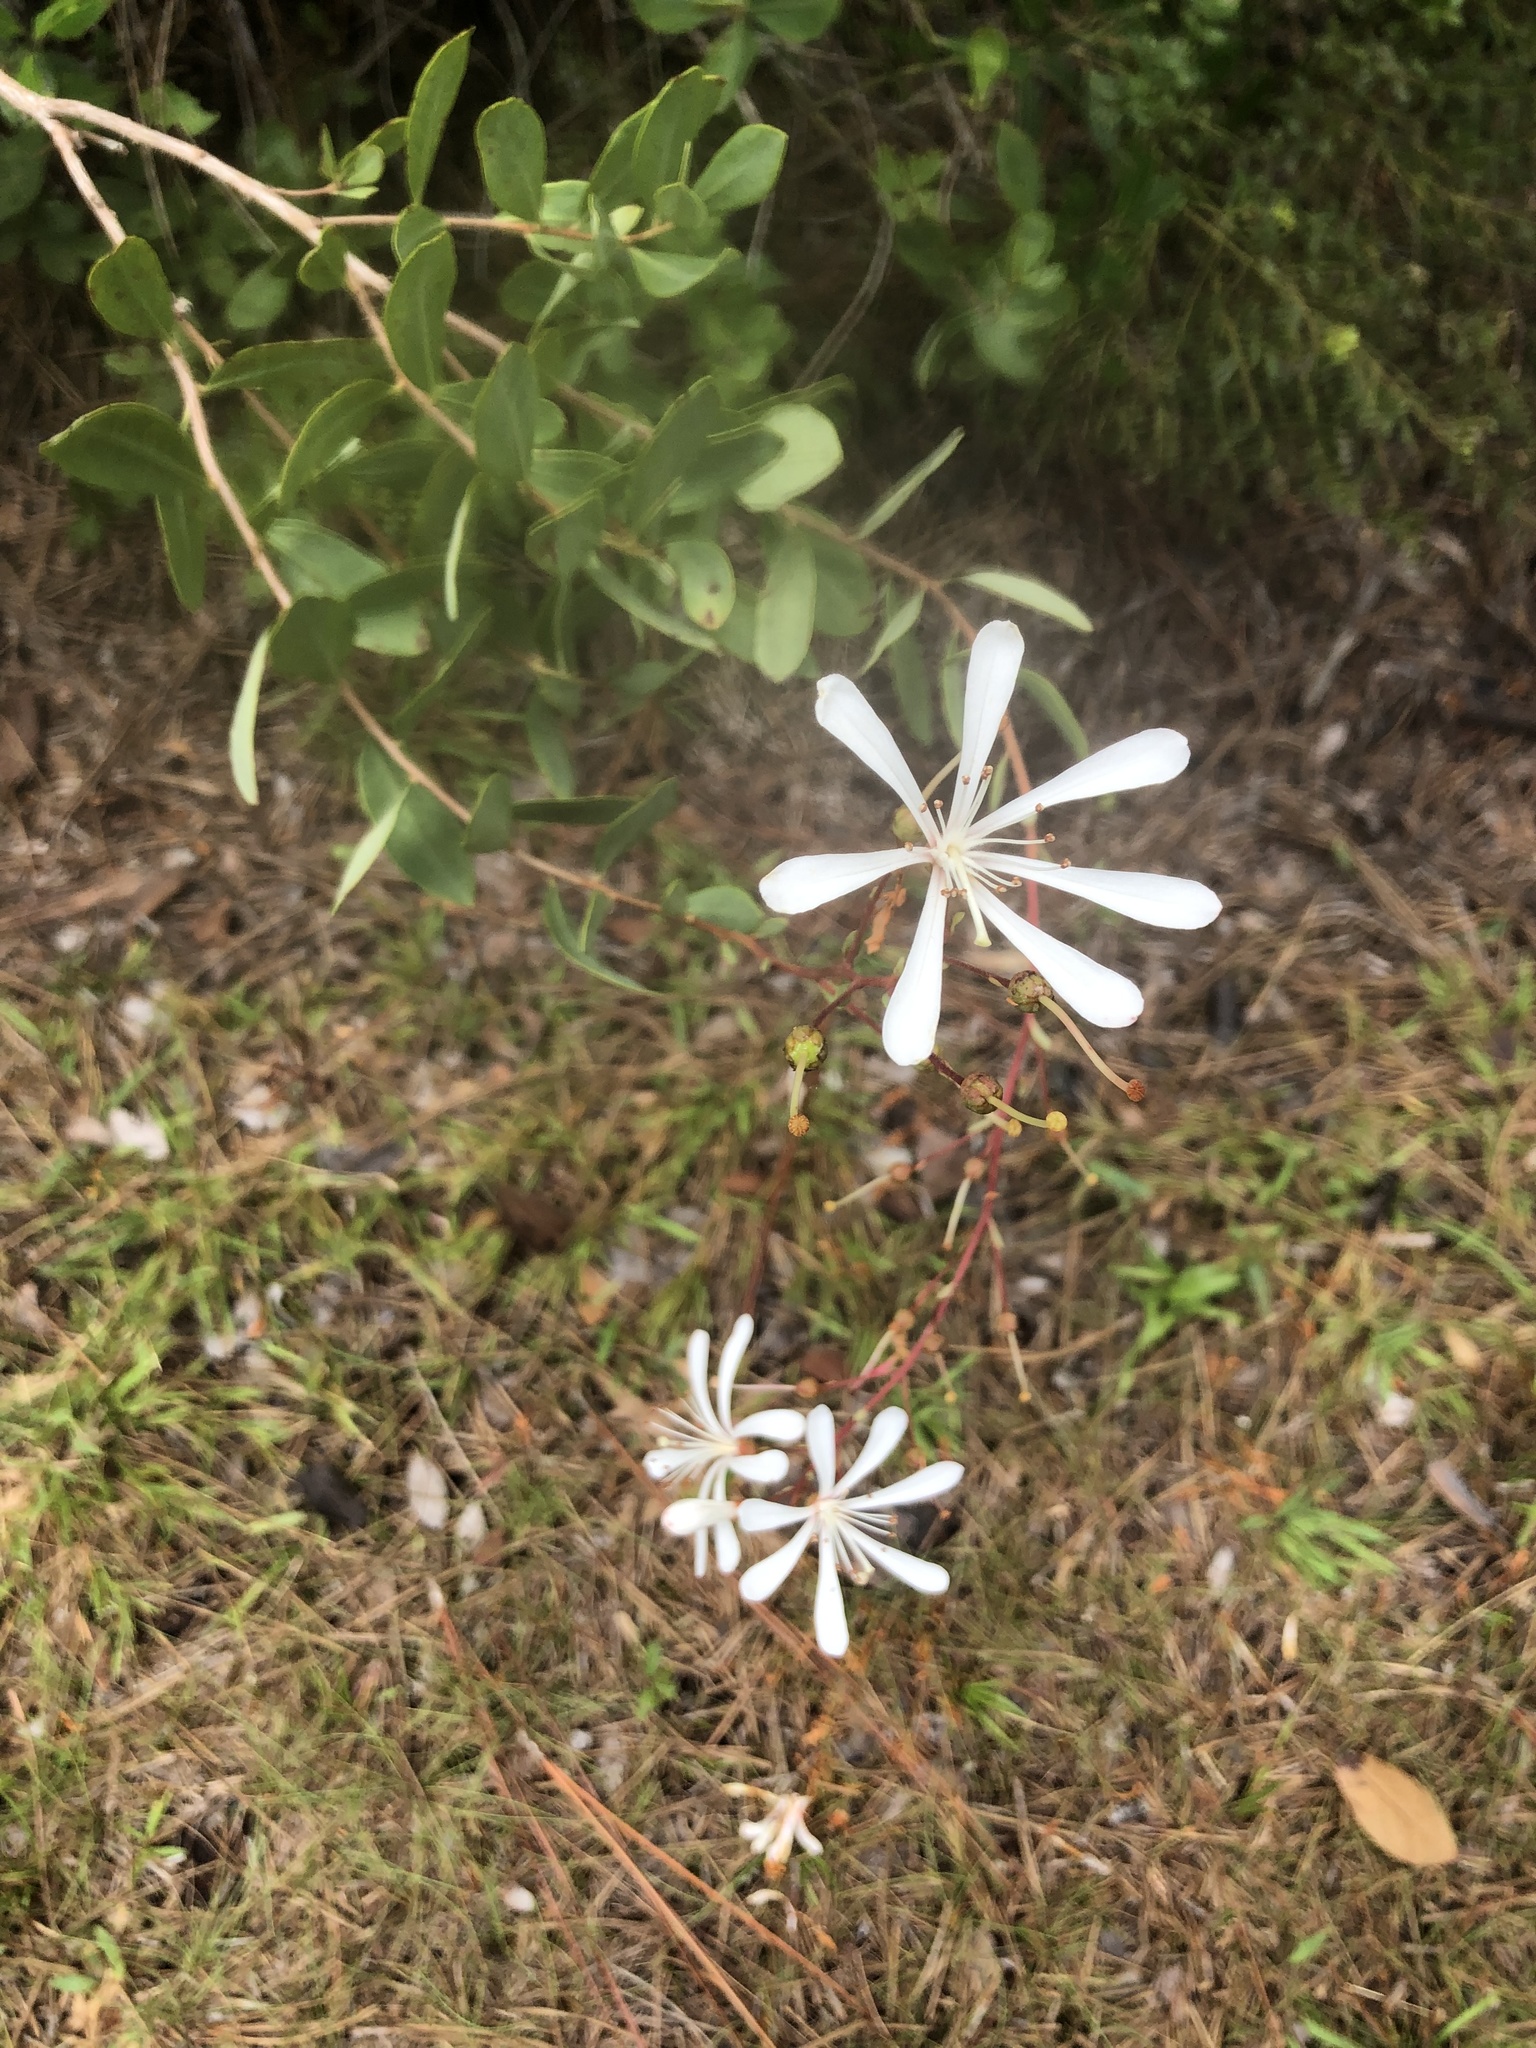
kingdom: Plantae
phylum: Tracheophyta
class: Magnoliopsida
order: Ericales
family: Ericaceae
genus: Bejaria
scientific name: Bejaria racemosa
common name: Tarflower
